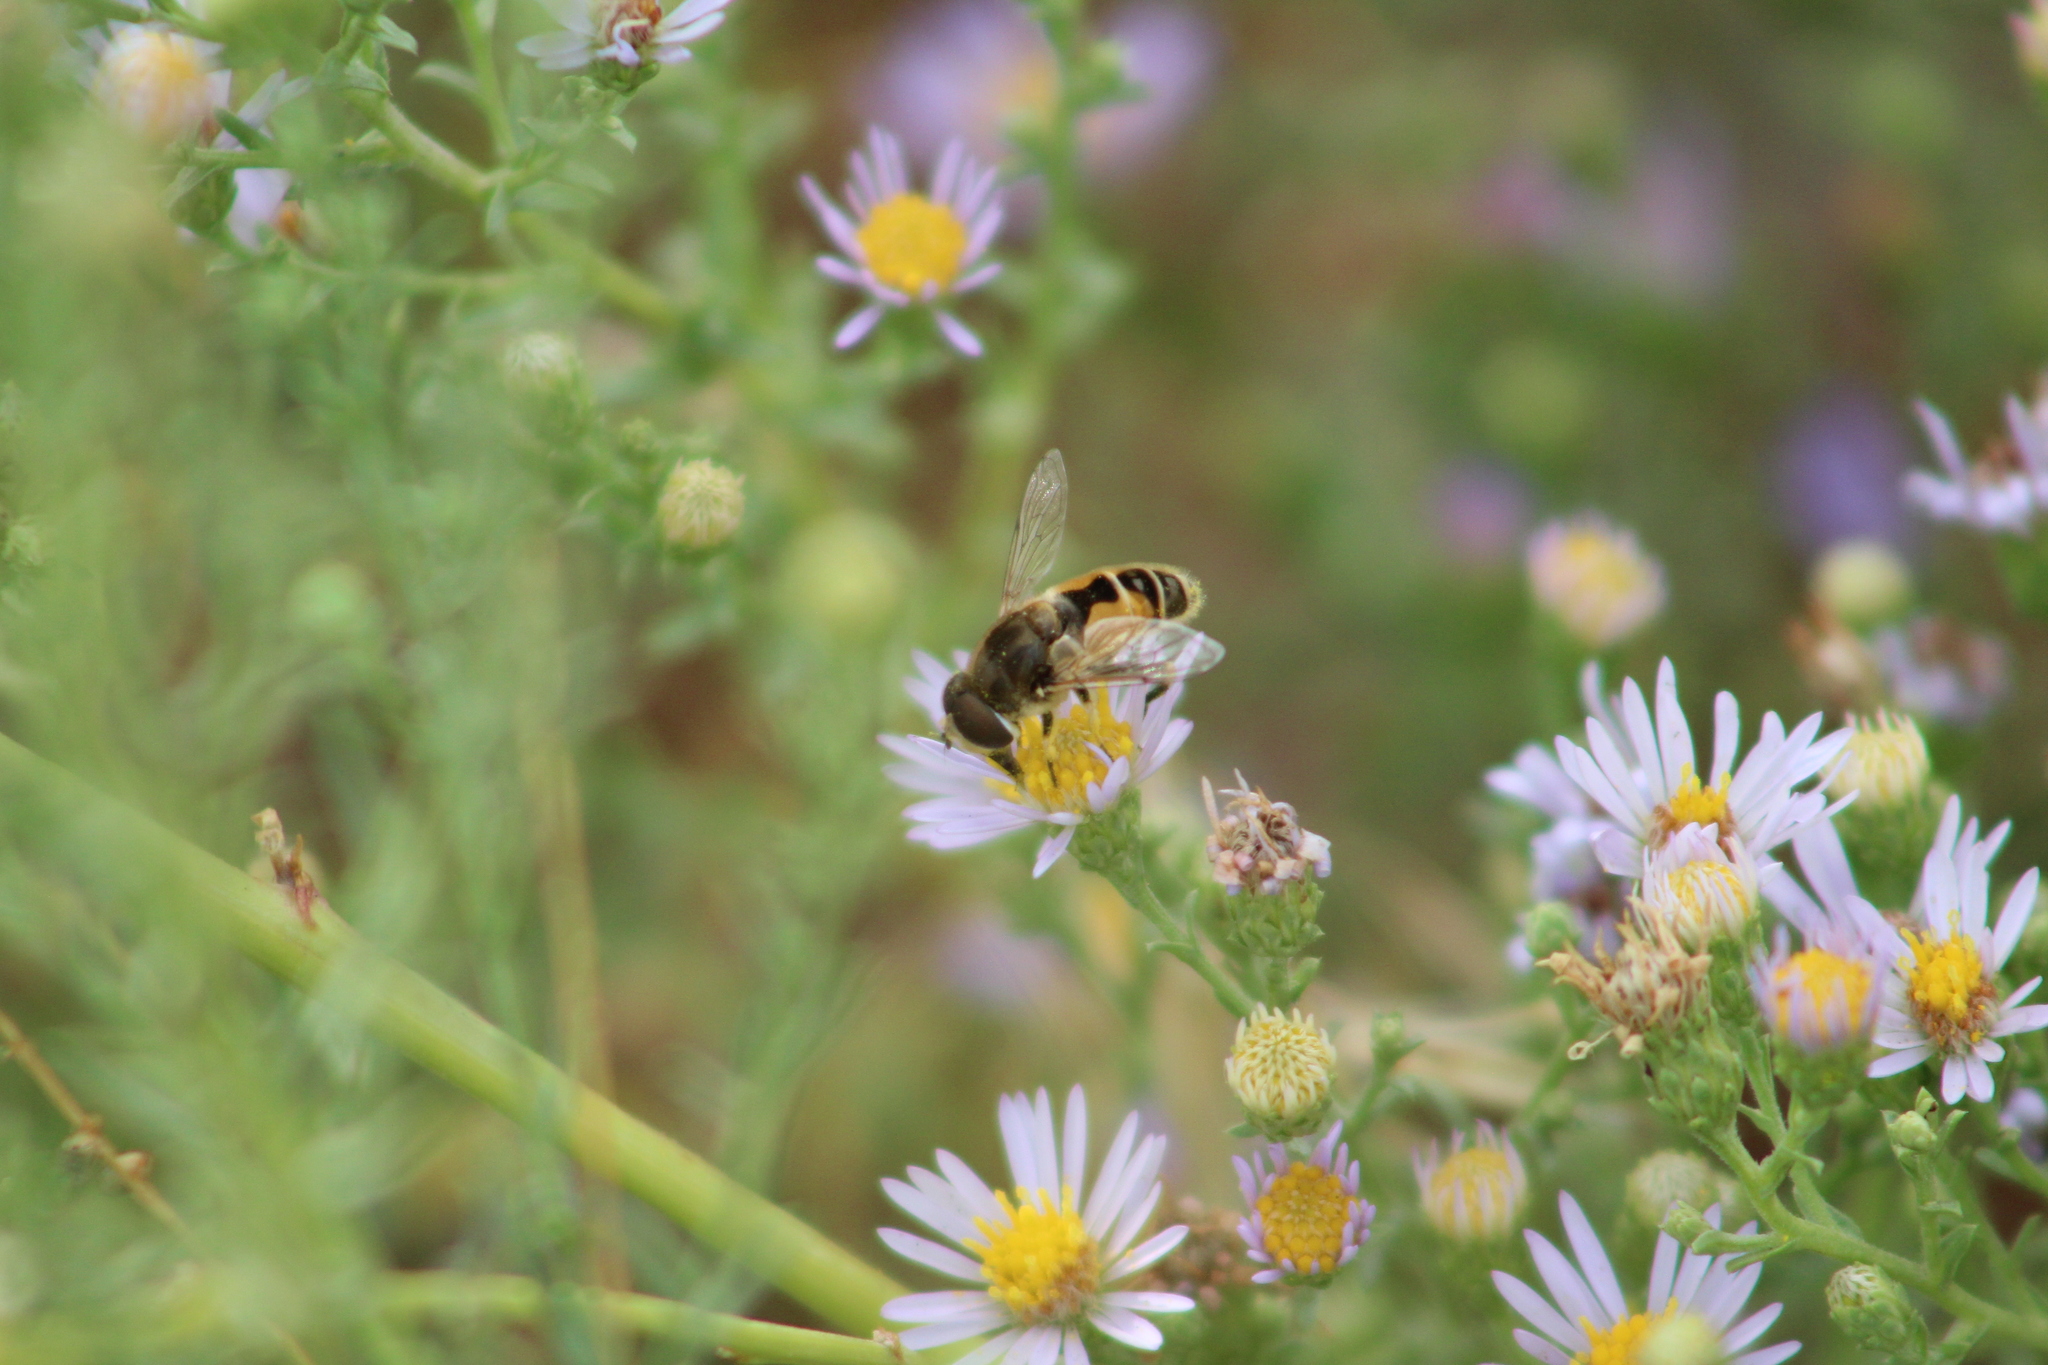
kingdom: Animalia
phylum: Arthropoda
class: Insecta
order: Diptera
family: Syrphidae
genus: Eristalis
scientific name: Eristalis arbustorum
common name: Hover fly
